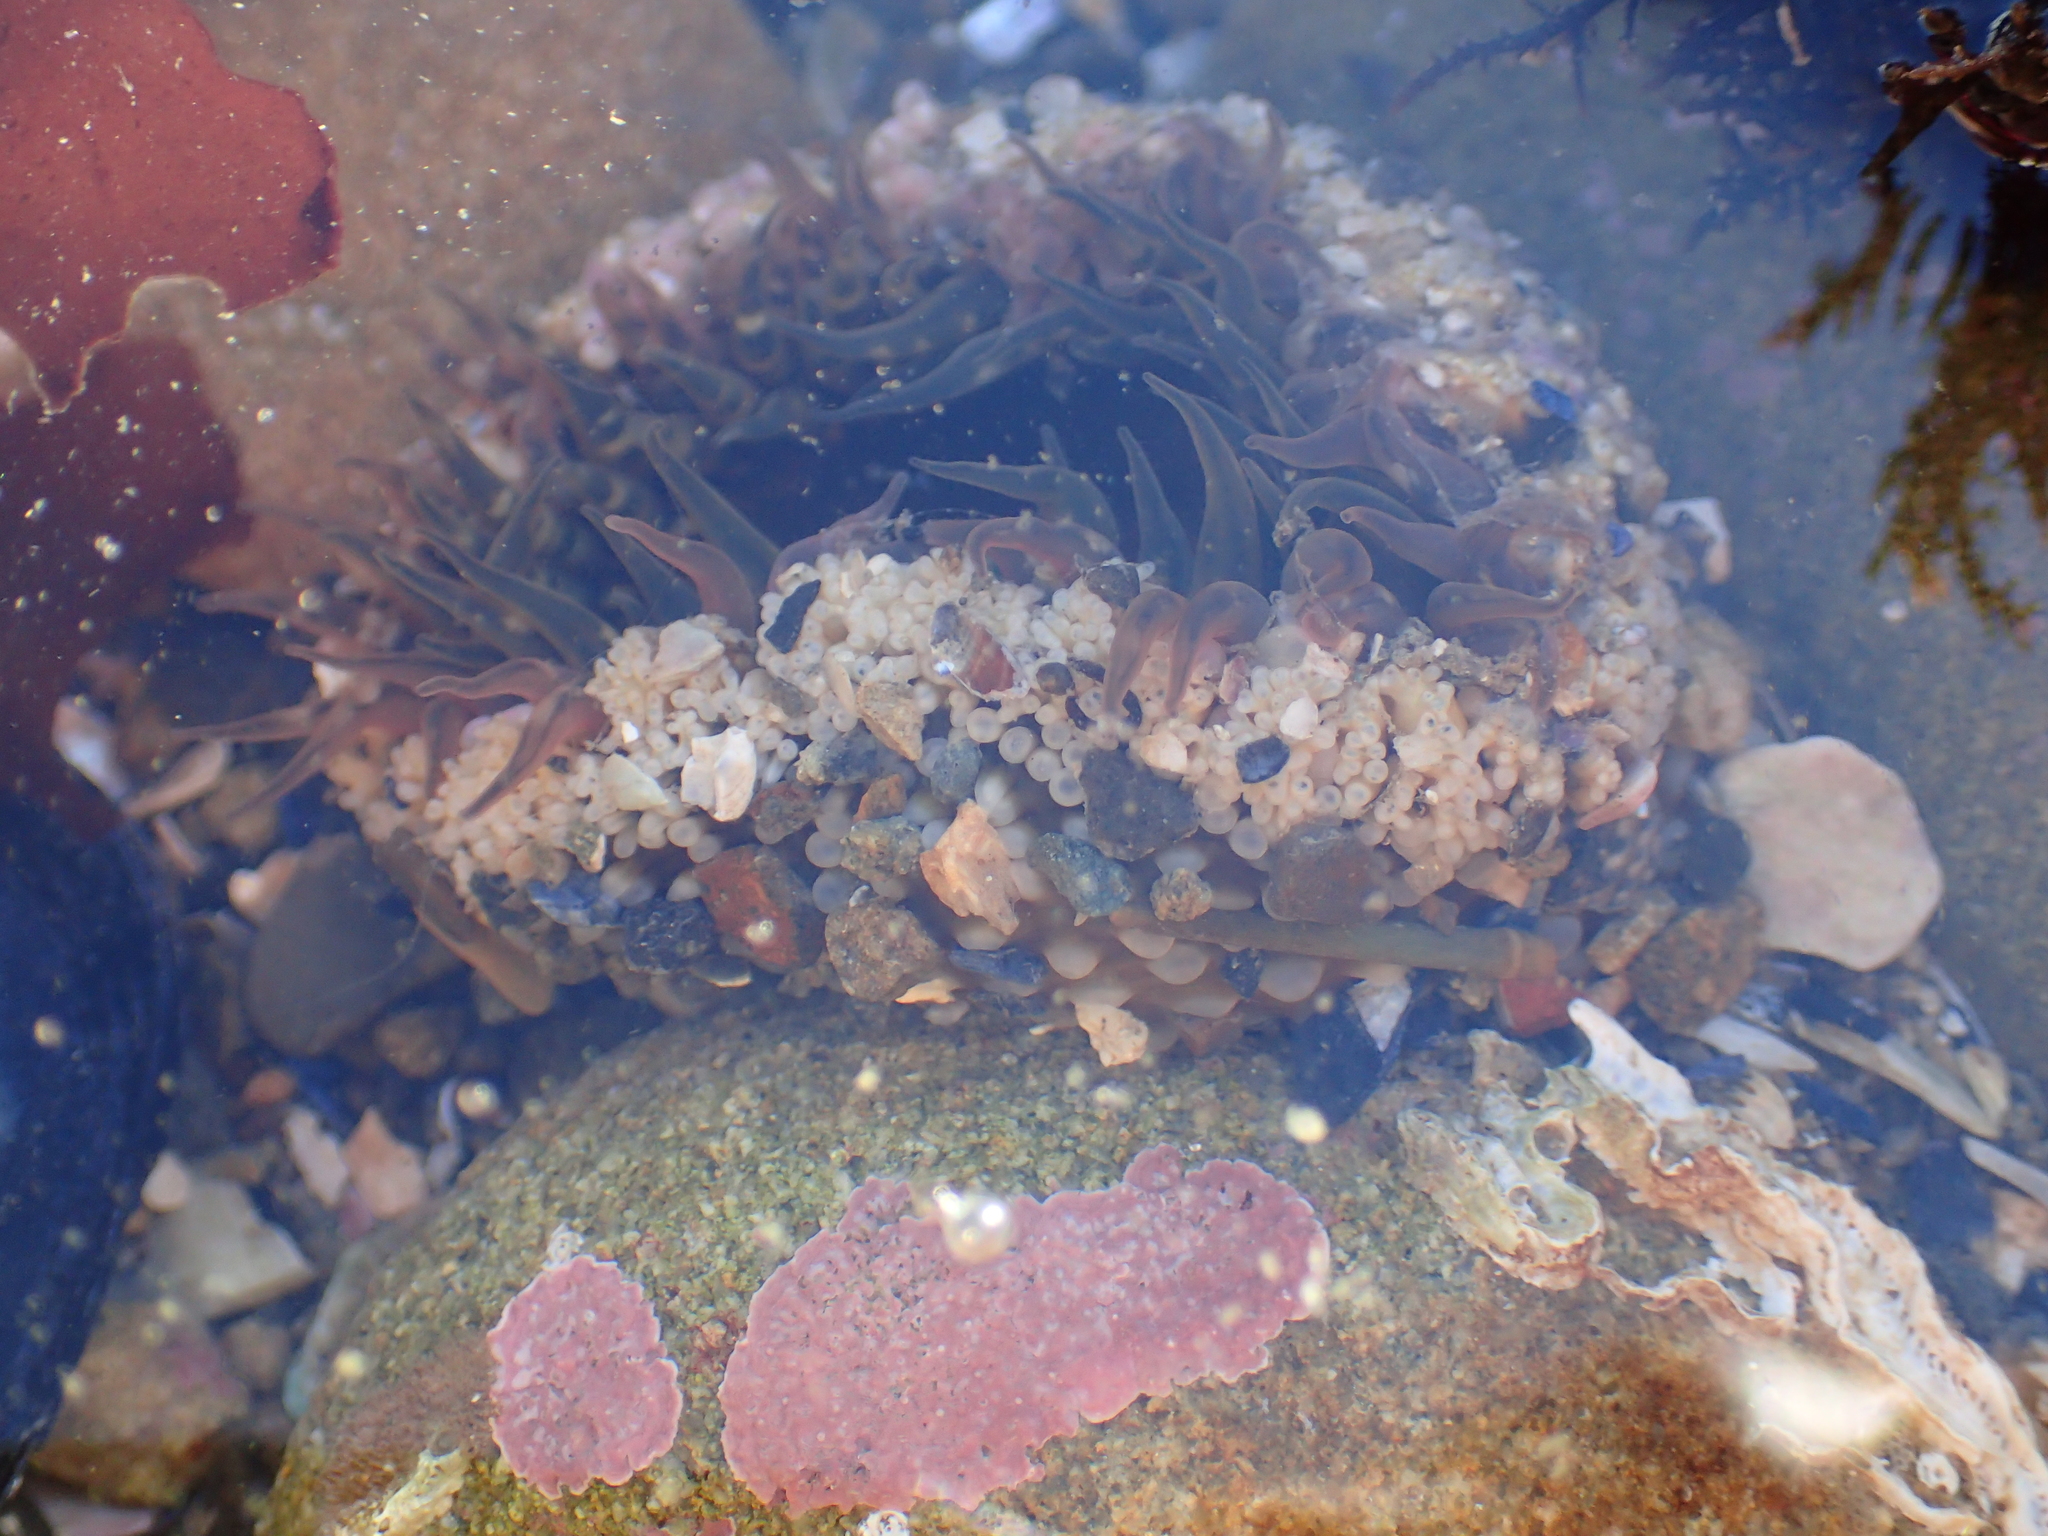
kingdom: Animalia
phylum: Cnidaria
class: Anthozoa
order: Actiniaria
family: Actiniidae
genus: Oulactis
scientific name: Oulactis muscosa
